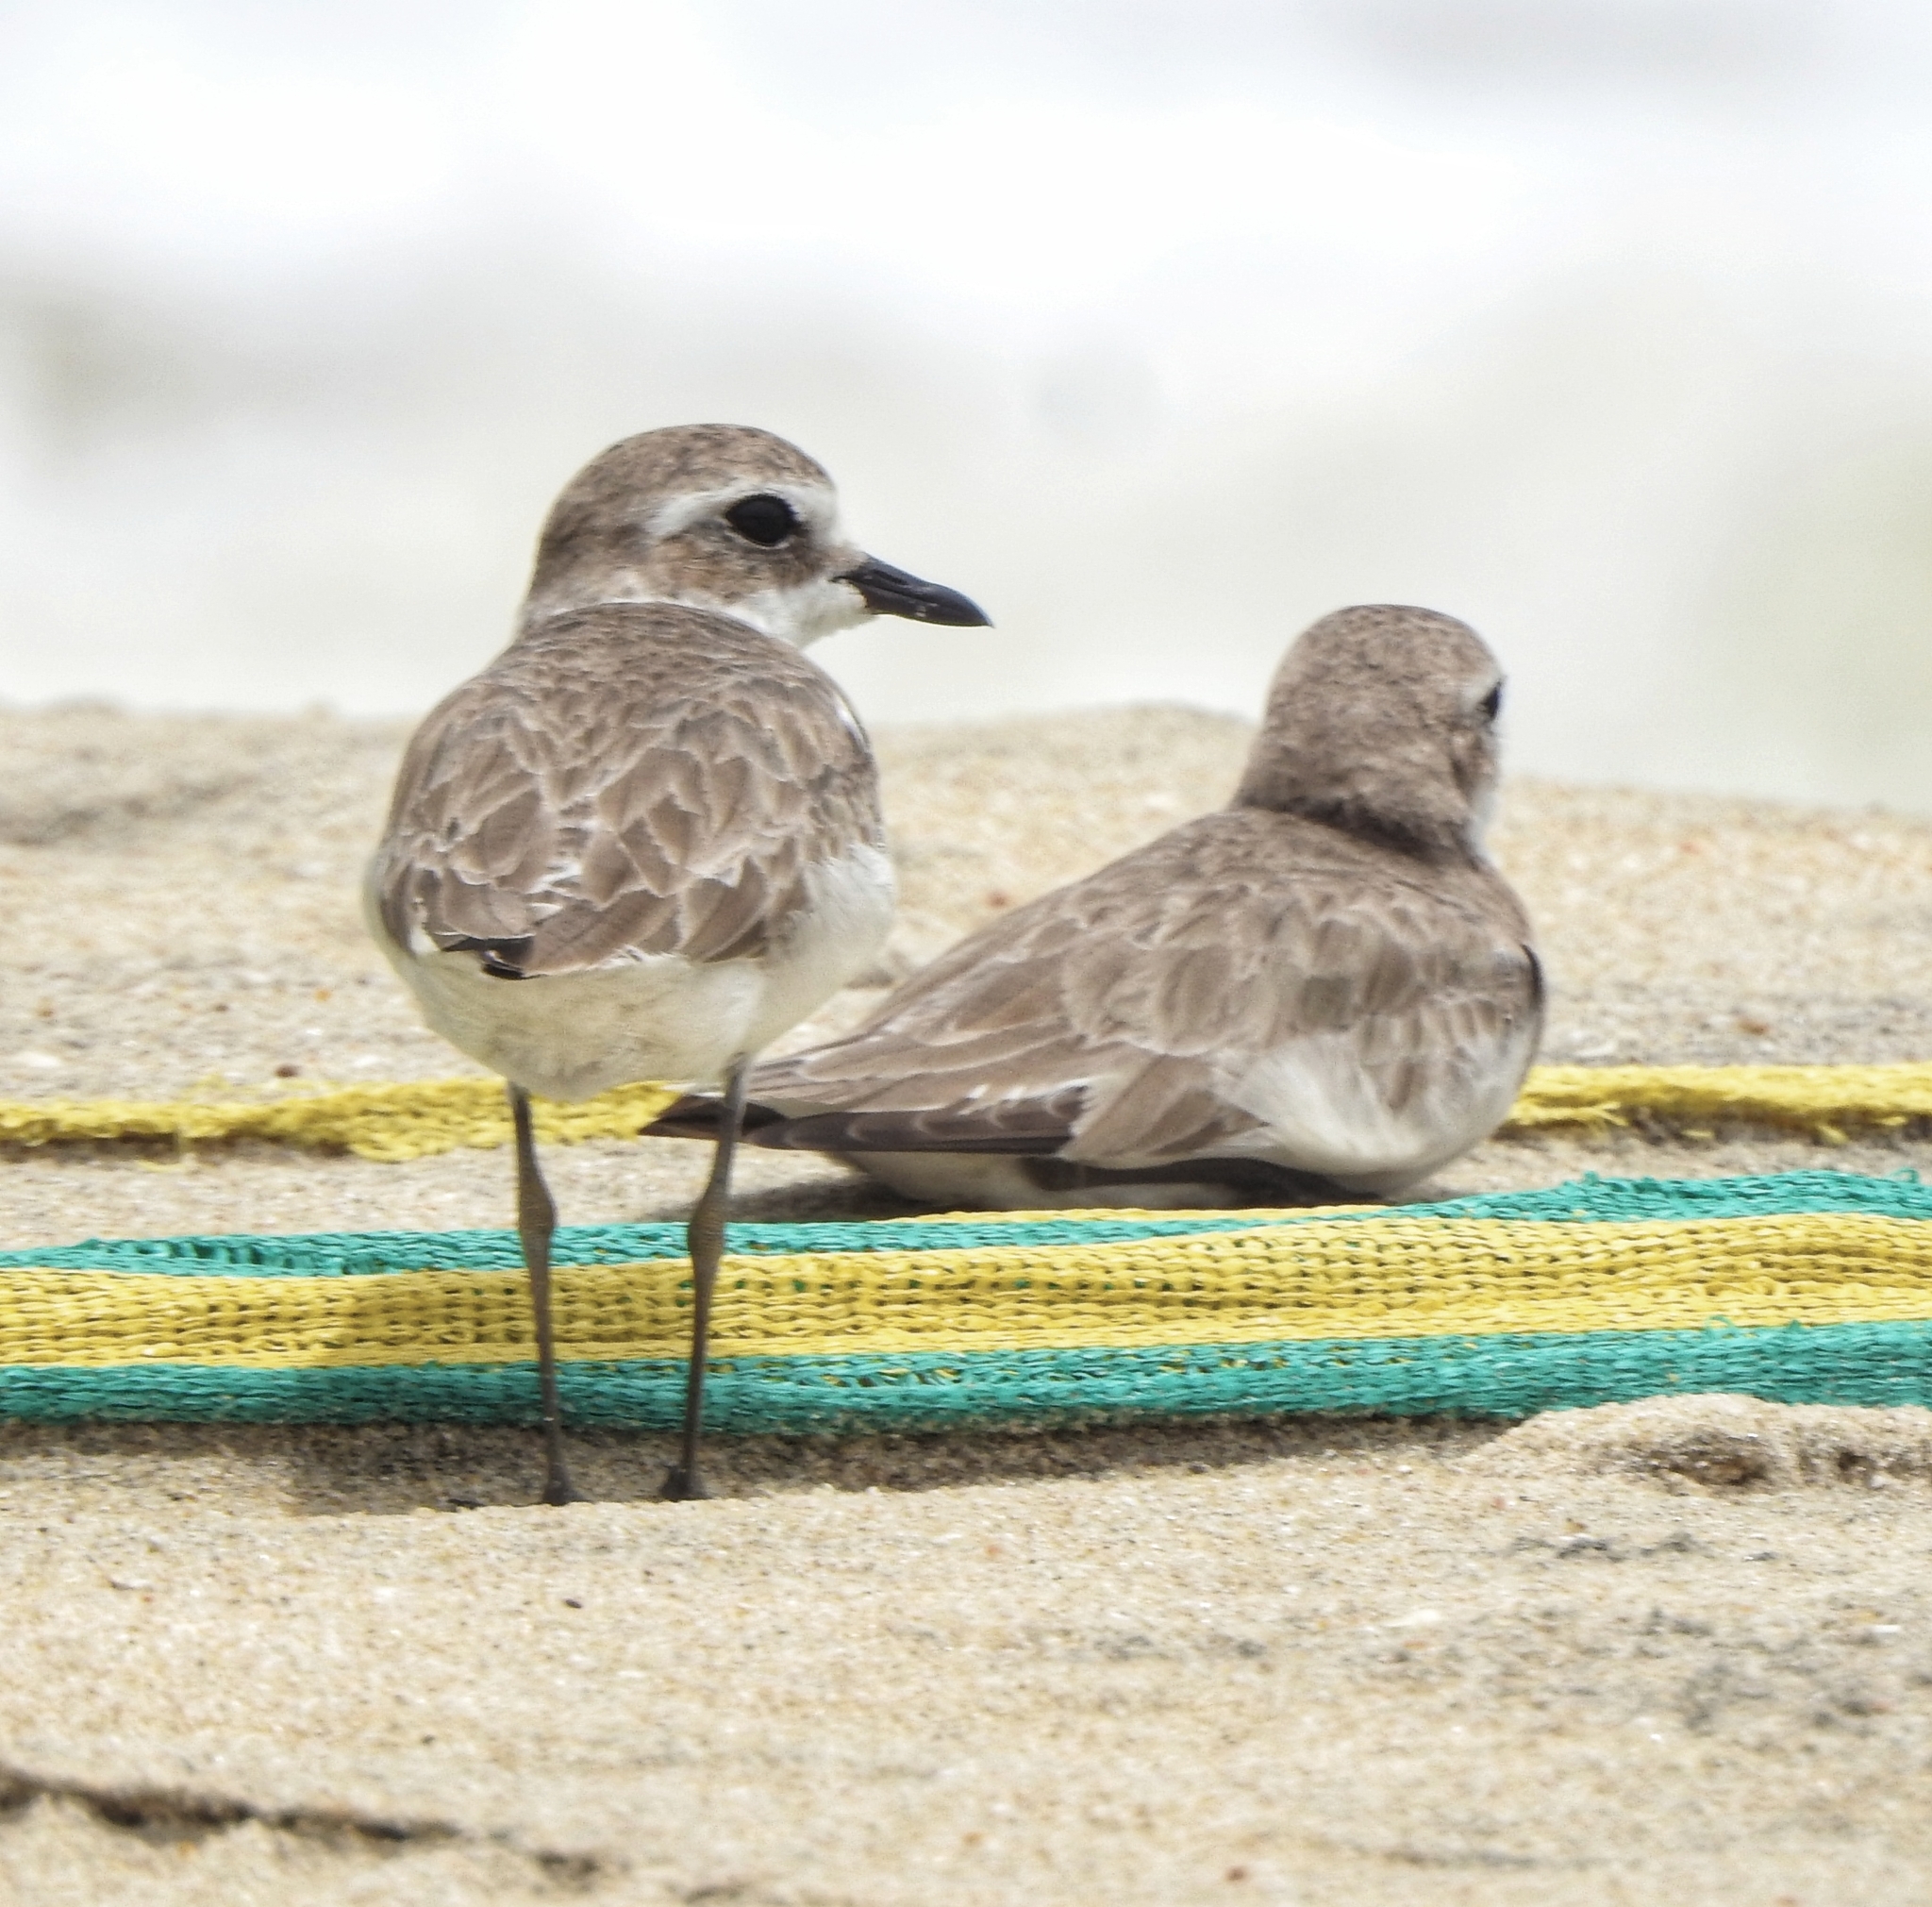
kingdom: Animalia
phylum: Chordata
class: Aves
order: Charadriiformes
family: Charadriidae
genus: Anarhynchus
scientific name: Anarhynchus
